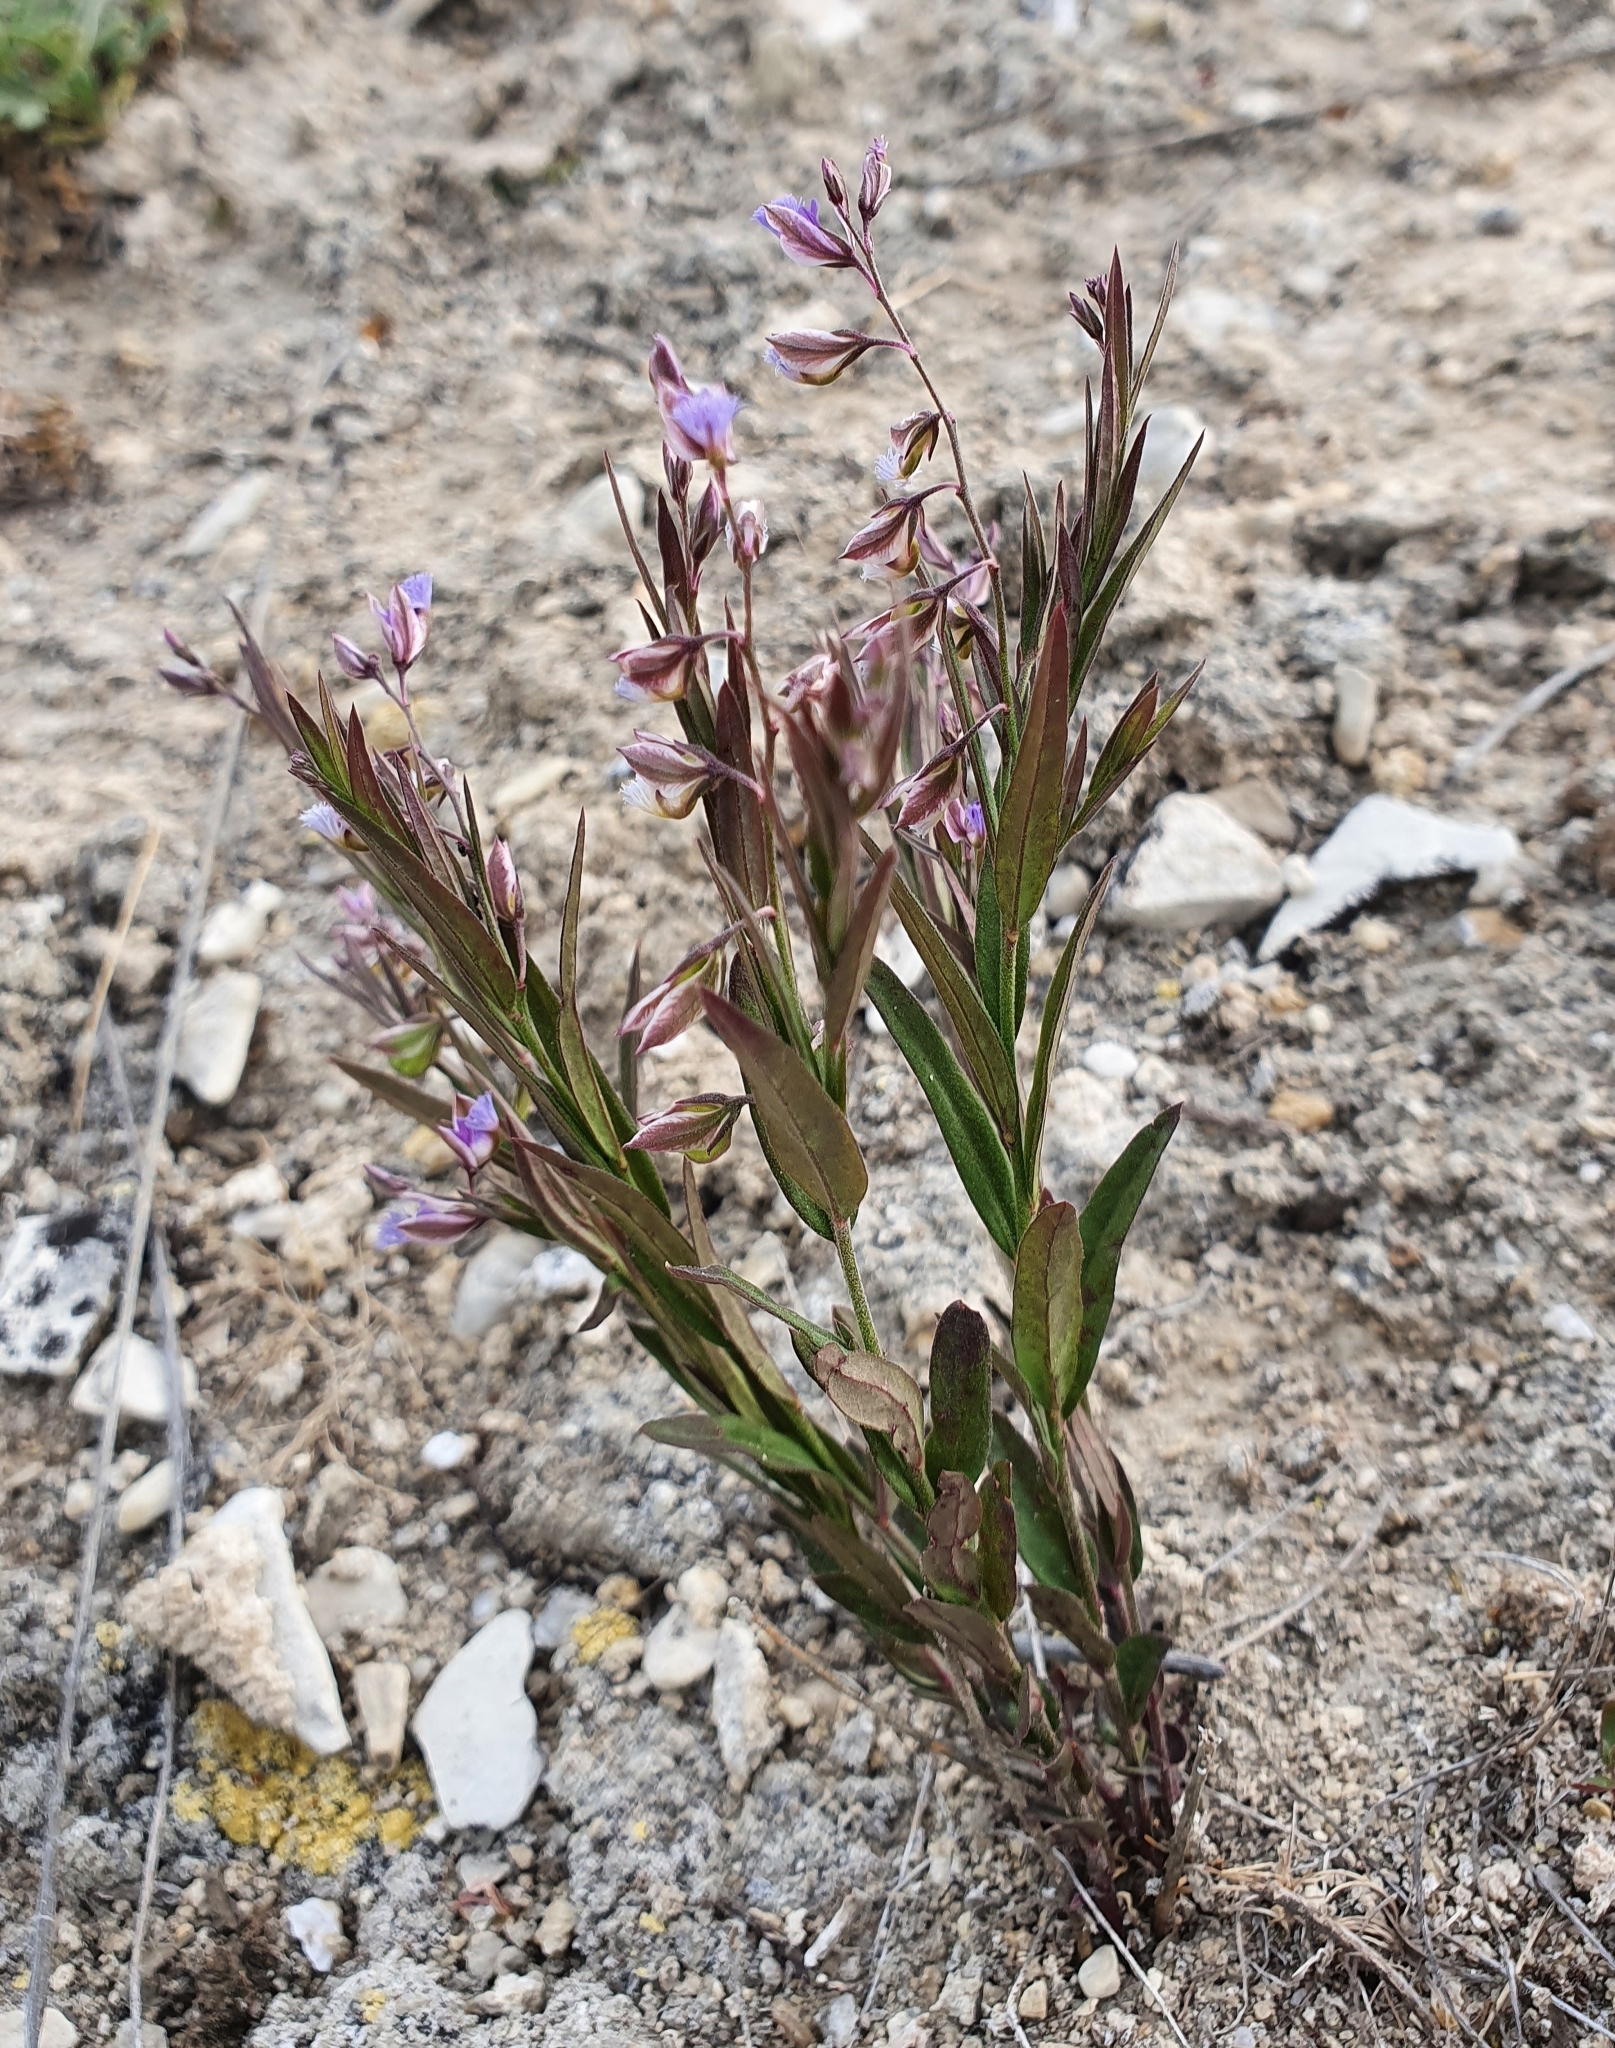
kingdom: Plantae
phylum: Tracheophyta
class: Magnoliopsida
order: Fabales
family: Polygalaceae
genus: Polygala
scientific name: Polygala sibirica
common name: Siberian polygala
